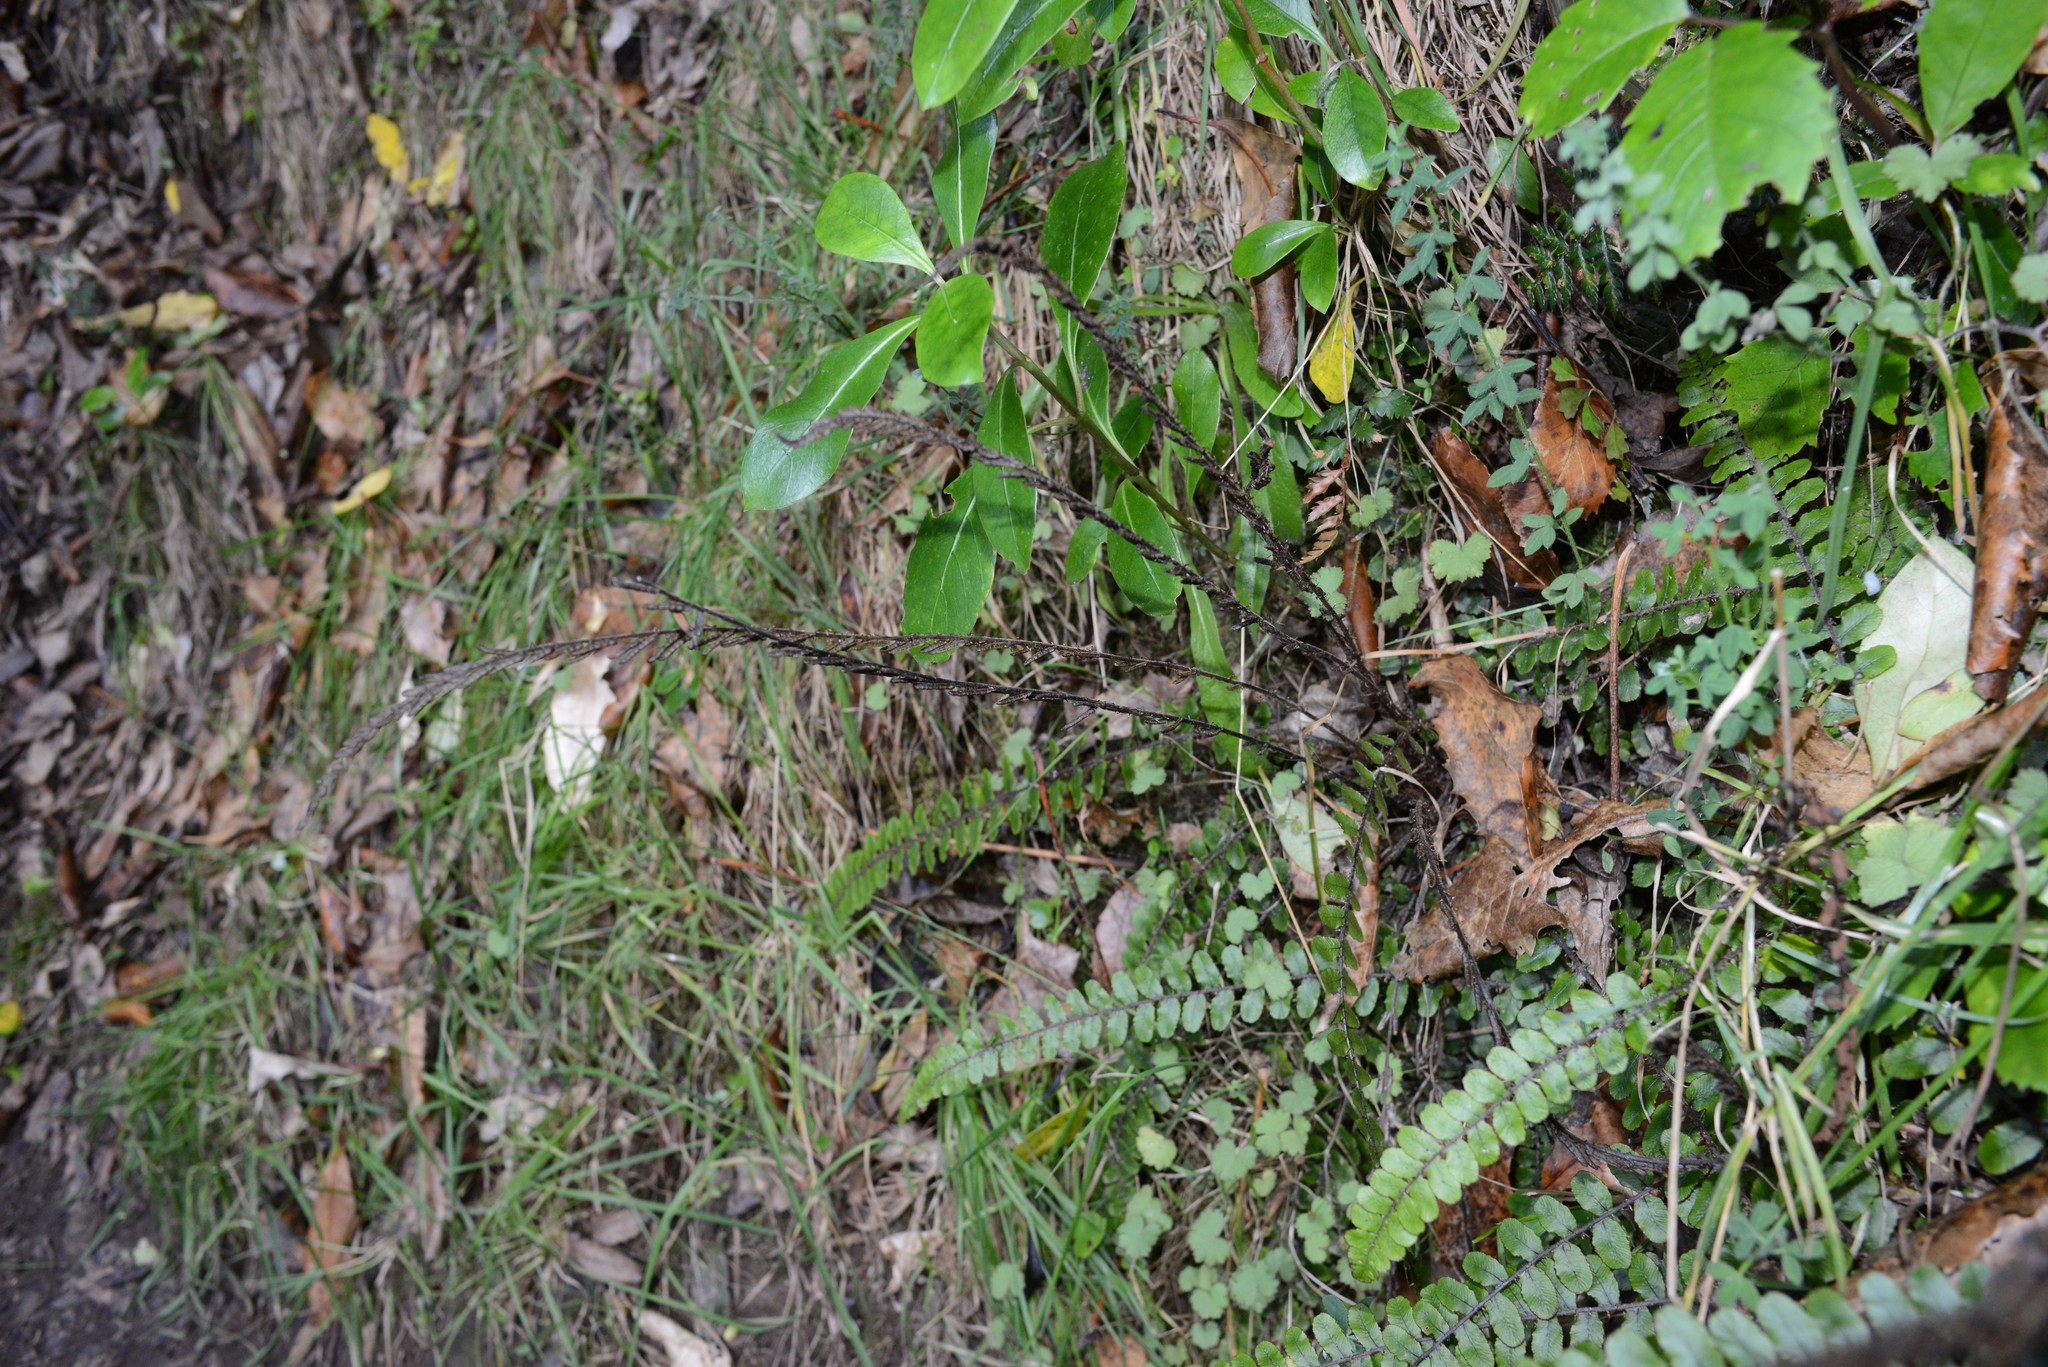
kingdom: Plantae
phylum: Tracheophyta
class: Polypodiopsida
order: Polypodiales
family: Blechnaceae
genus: Cranfillia
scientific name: Cranfillia fluviatilis
